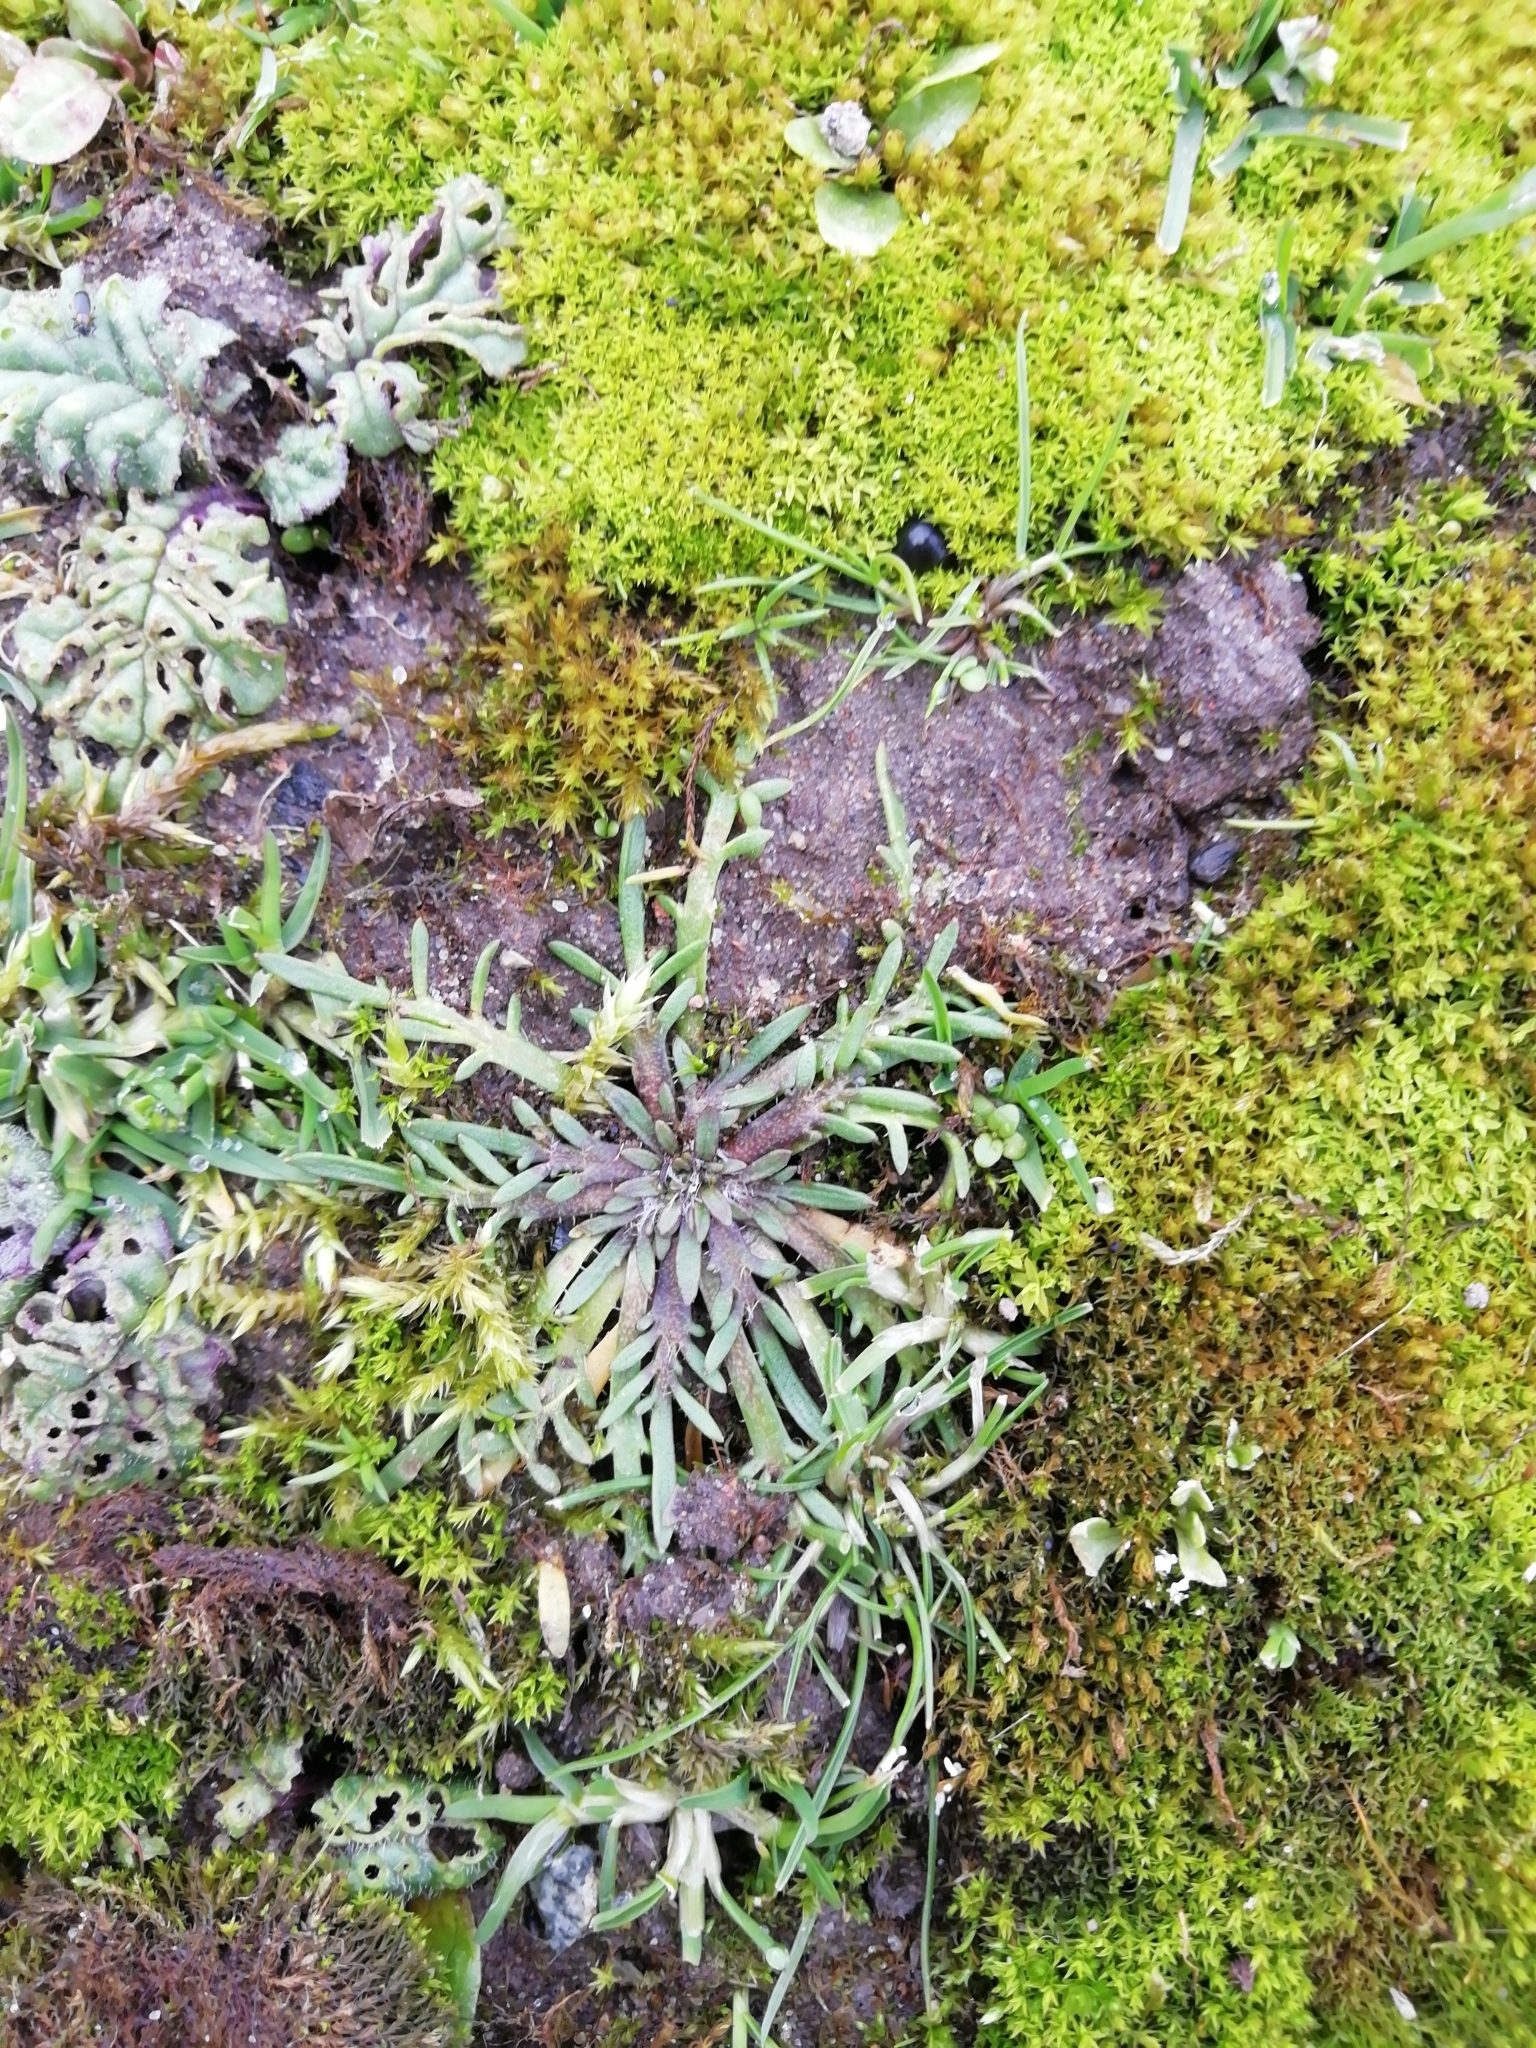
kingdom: Plantae
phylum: Tracheophyta
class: Magnoliopsida
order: Lamiales
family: Plantaginaceae
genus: Plantago
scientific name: Plantago coronopus
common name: Buck's-horn plantain
